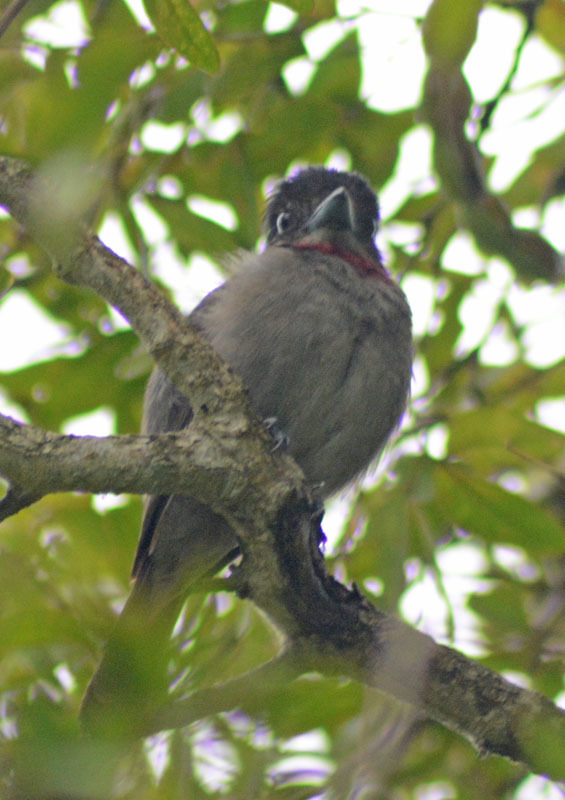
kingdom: Animalia
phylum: Chordata
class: Aves
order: Passeriformes
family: Cotingidae
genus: Pachyramphus
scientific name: Pachyramphus aglaiae
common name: Rose-throated becard
